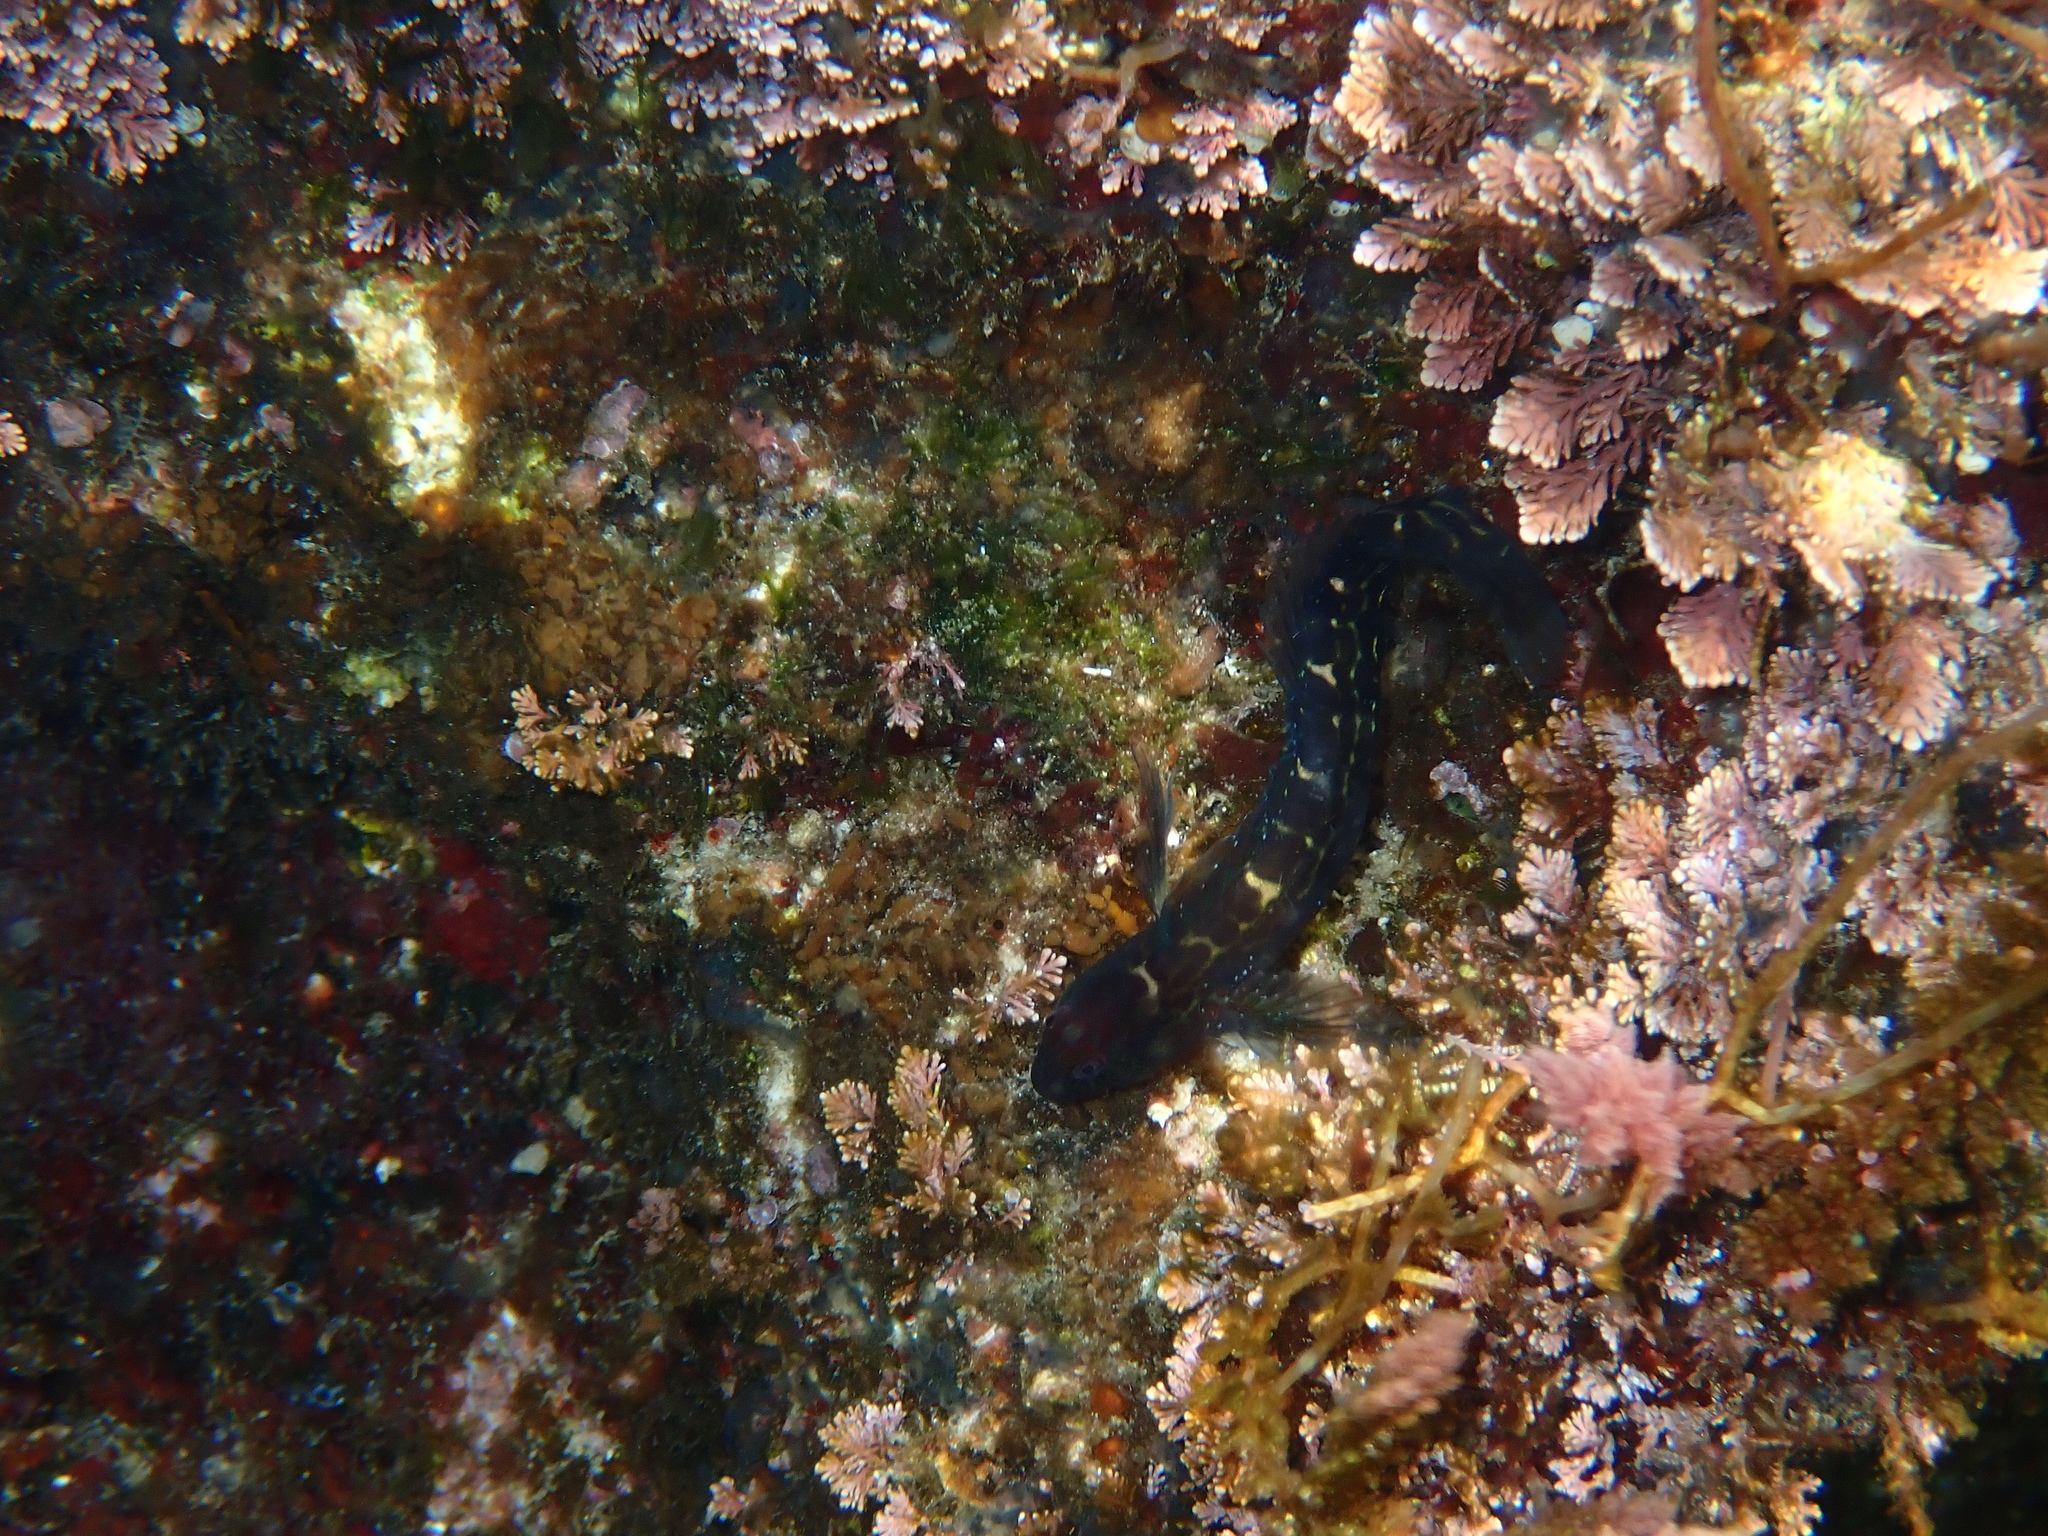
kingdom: Animalia
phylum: Chordata
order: Perciformes
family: Blenniidae
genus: Microlipophrys
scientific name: Microlipophrys canevae
